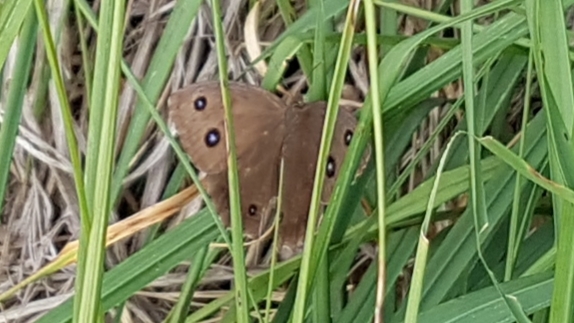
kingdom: Animalia
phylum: Arthropoda
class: Insecta
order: Lepidoptera
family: Nymphalidae
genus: Minois
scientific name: Minois dryas
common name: Dryad
